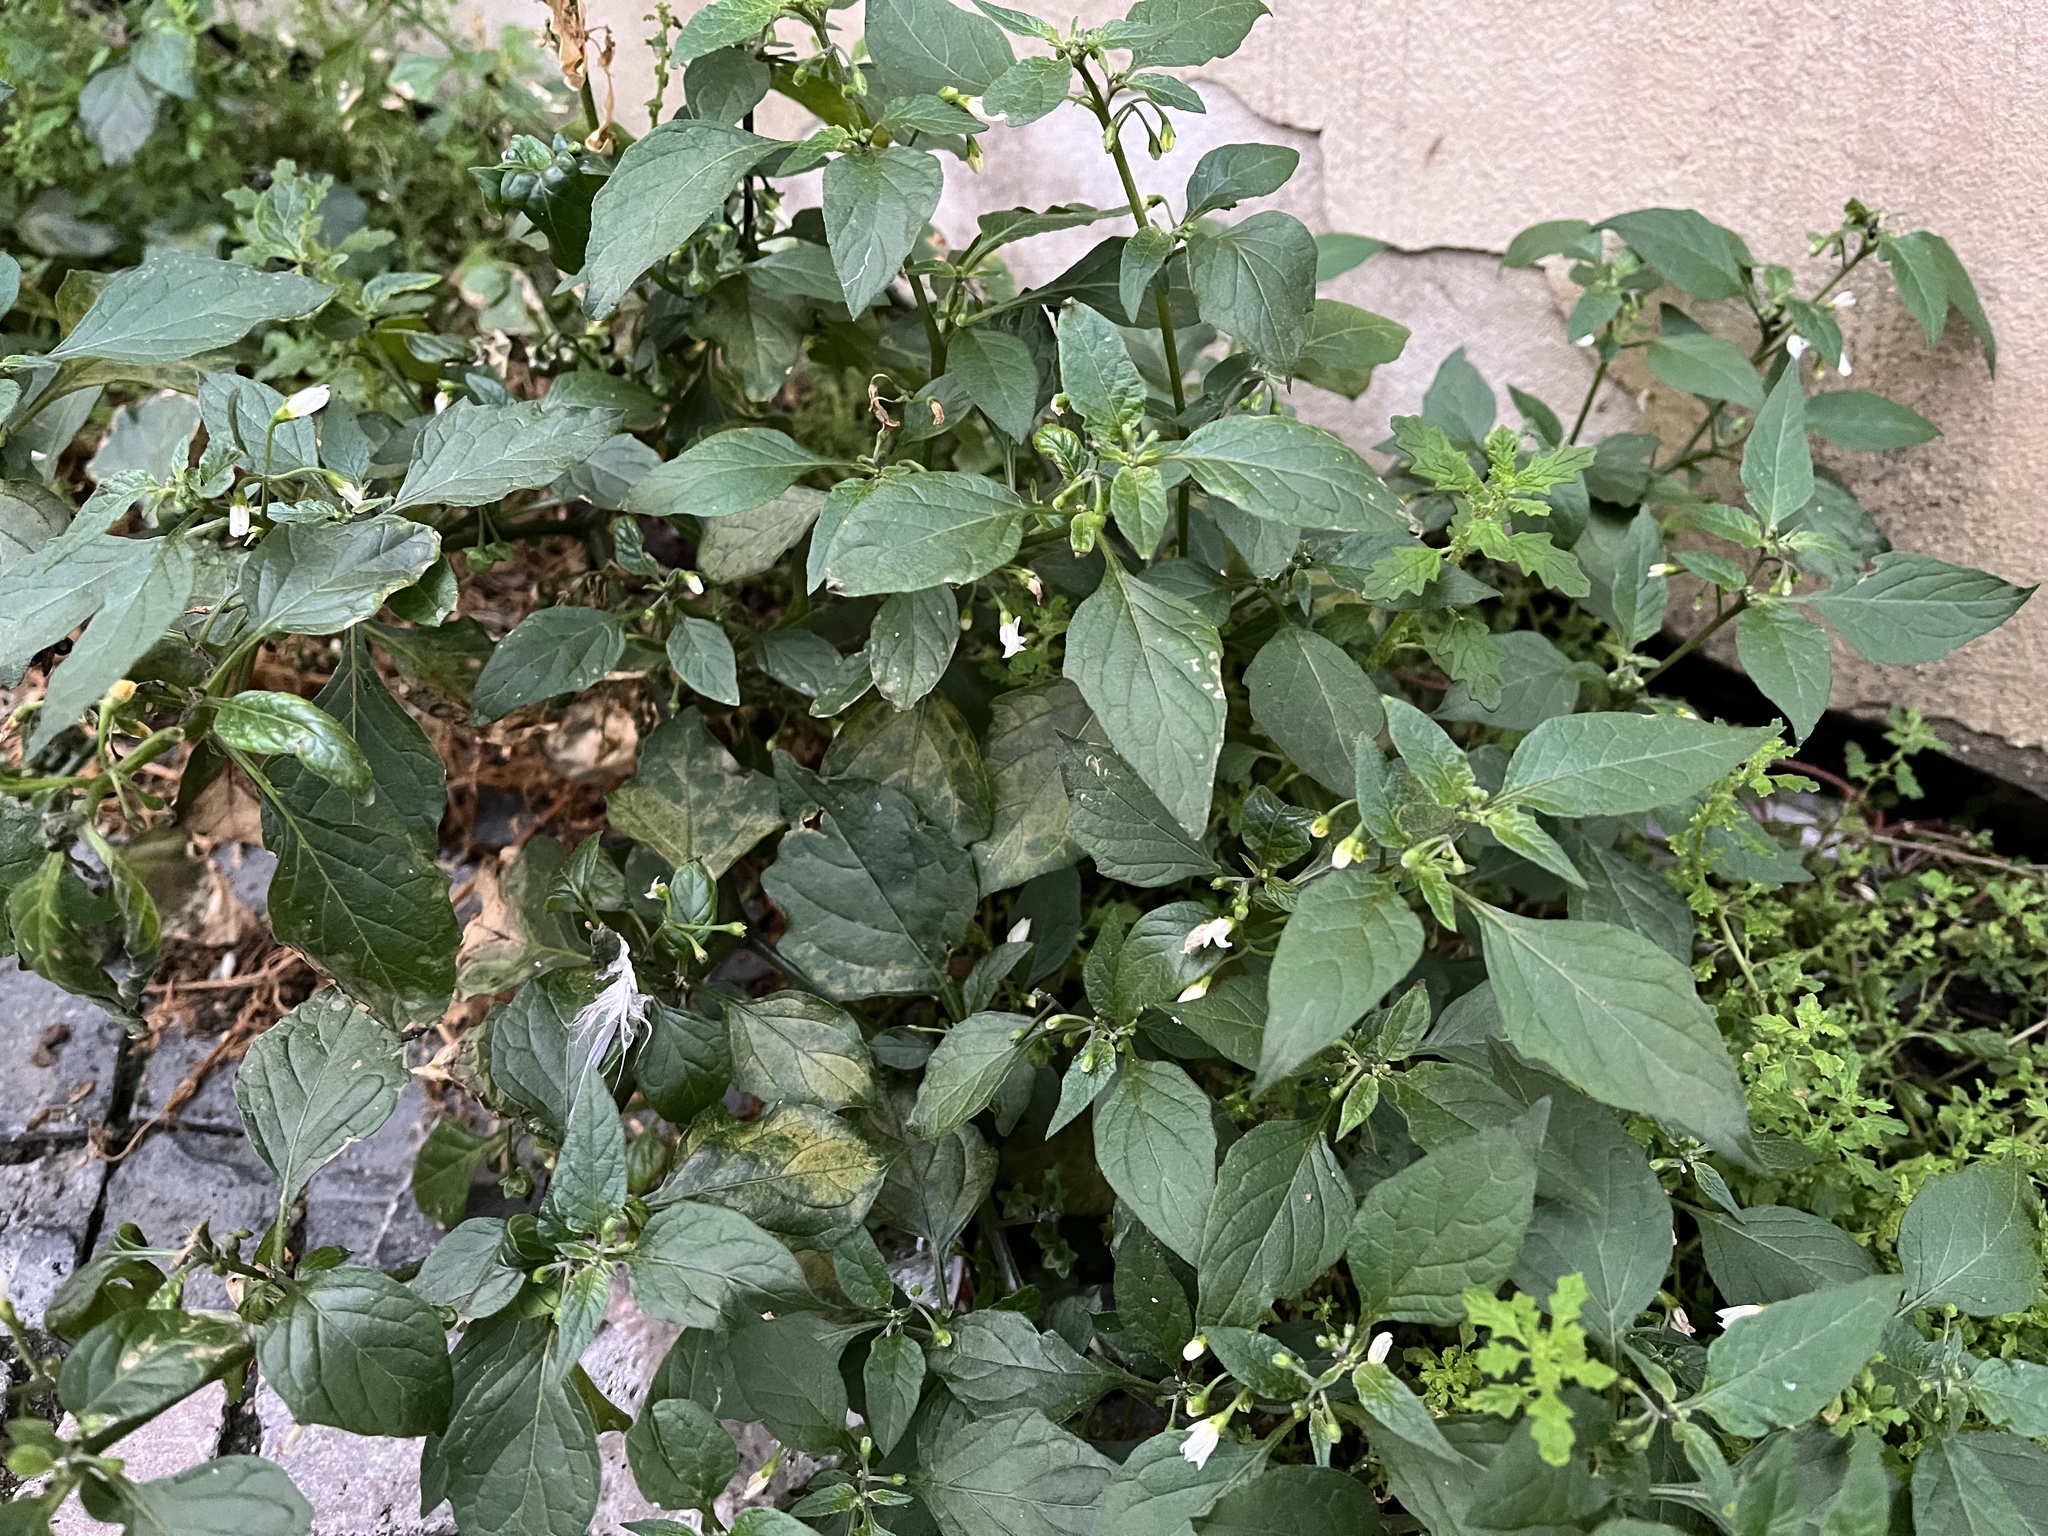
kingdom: Plantae
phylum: Tracheophyta
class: Magnoliopsida
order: Solanales
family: Solanaceae
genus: Solanum
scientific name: Solanum nigrum
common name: Black nightshade
